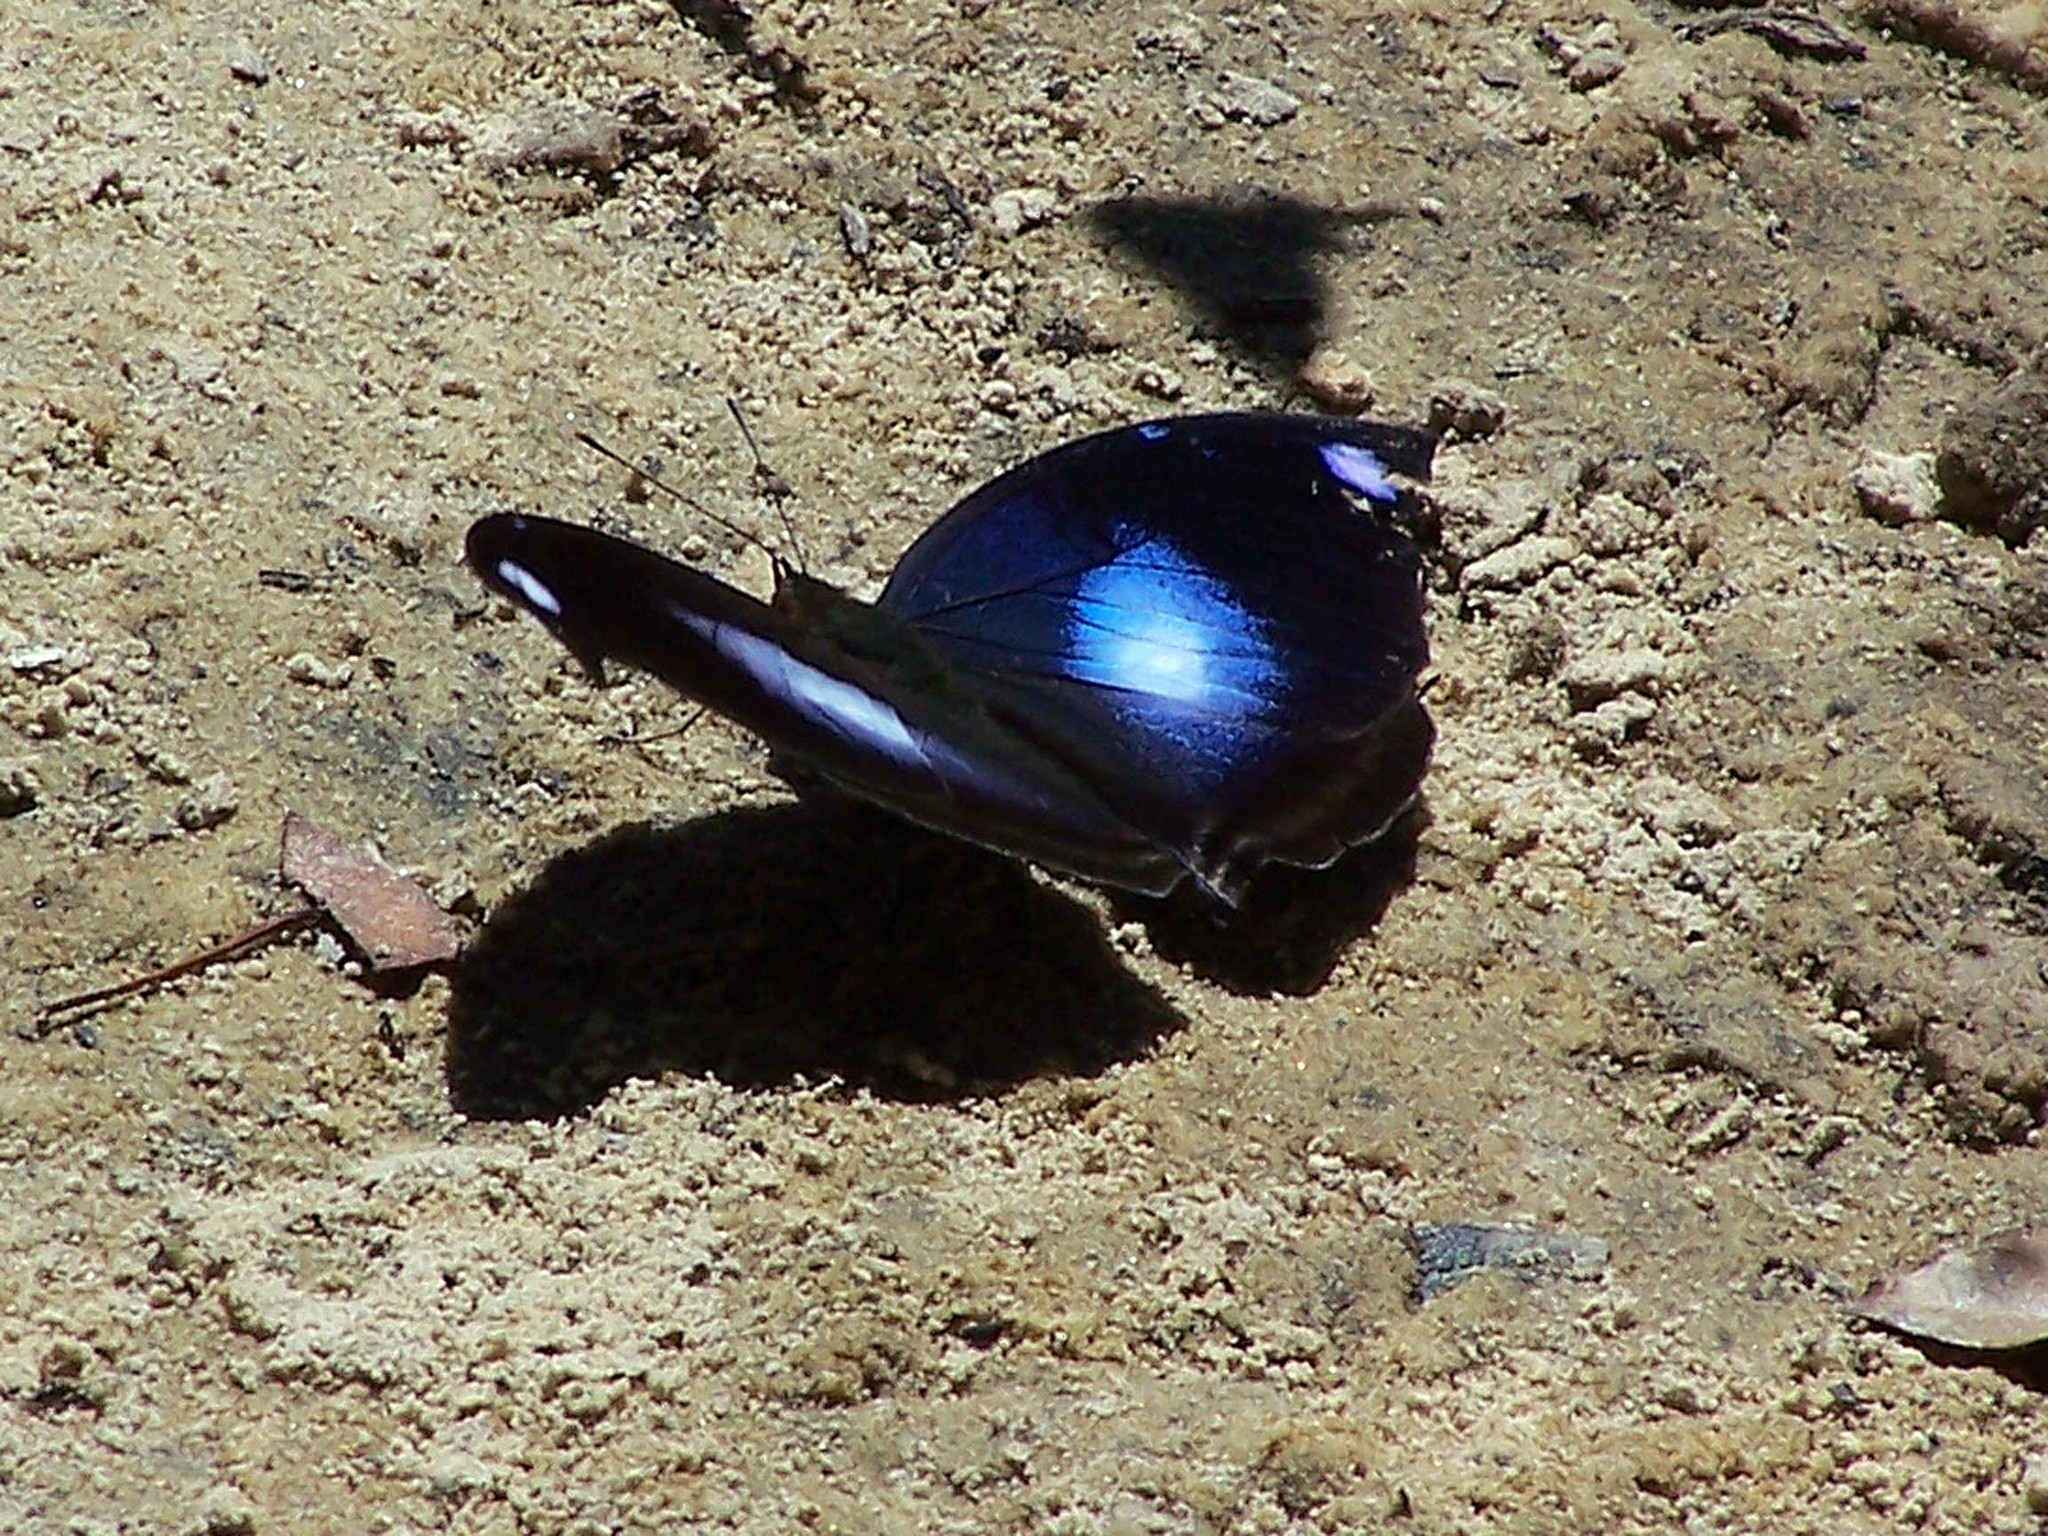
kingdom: Animalia
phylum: Arthropoda
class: Insecta
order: Lepidoptera
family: Nymphalidae
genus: Napeocles
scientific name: Napeocles jucunda
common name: Great blue hookwing
